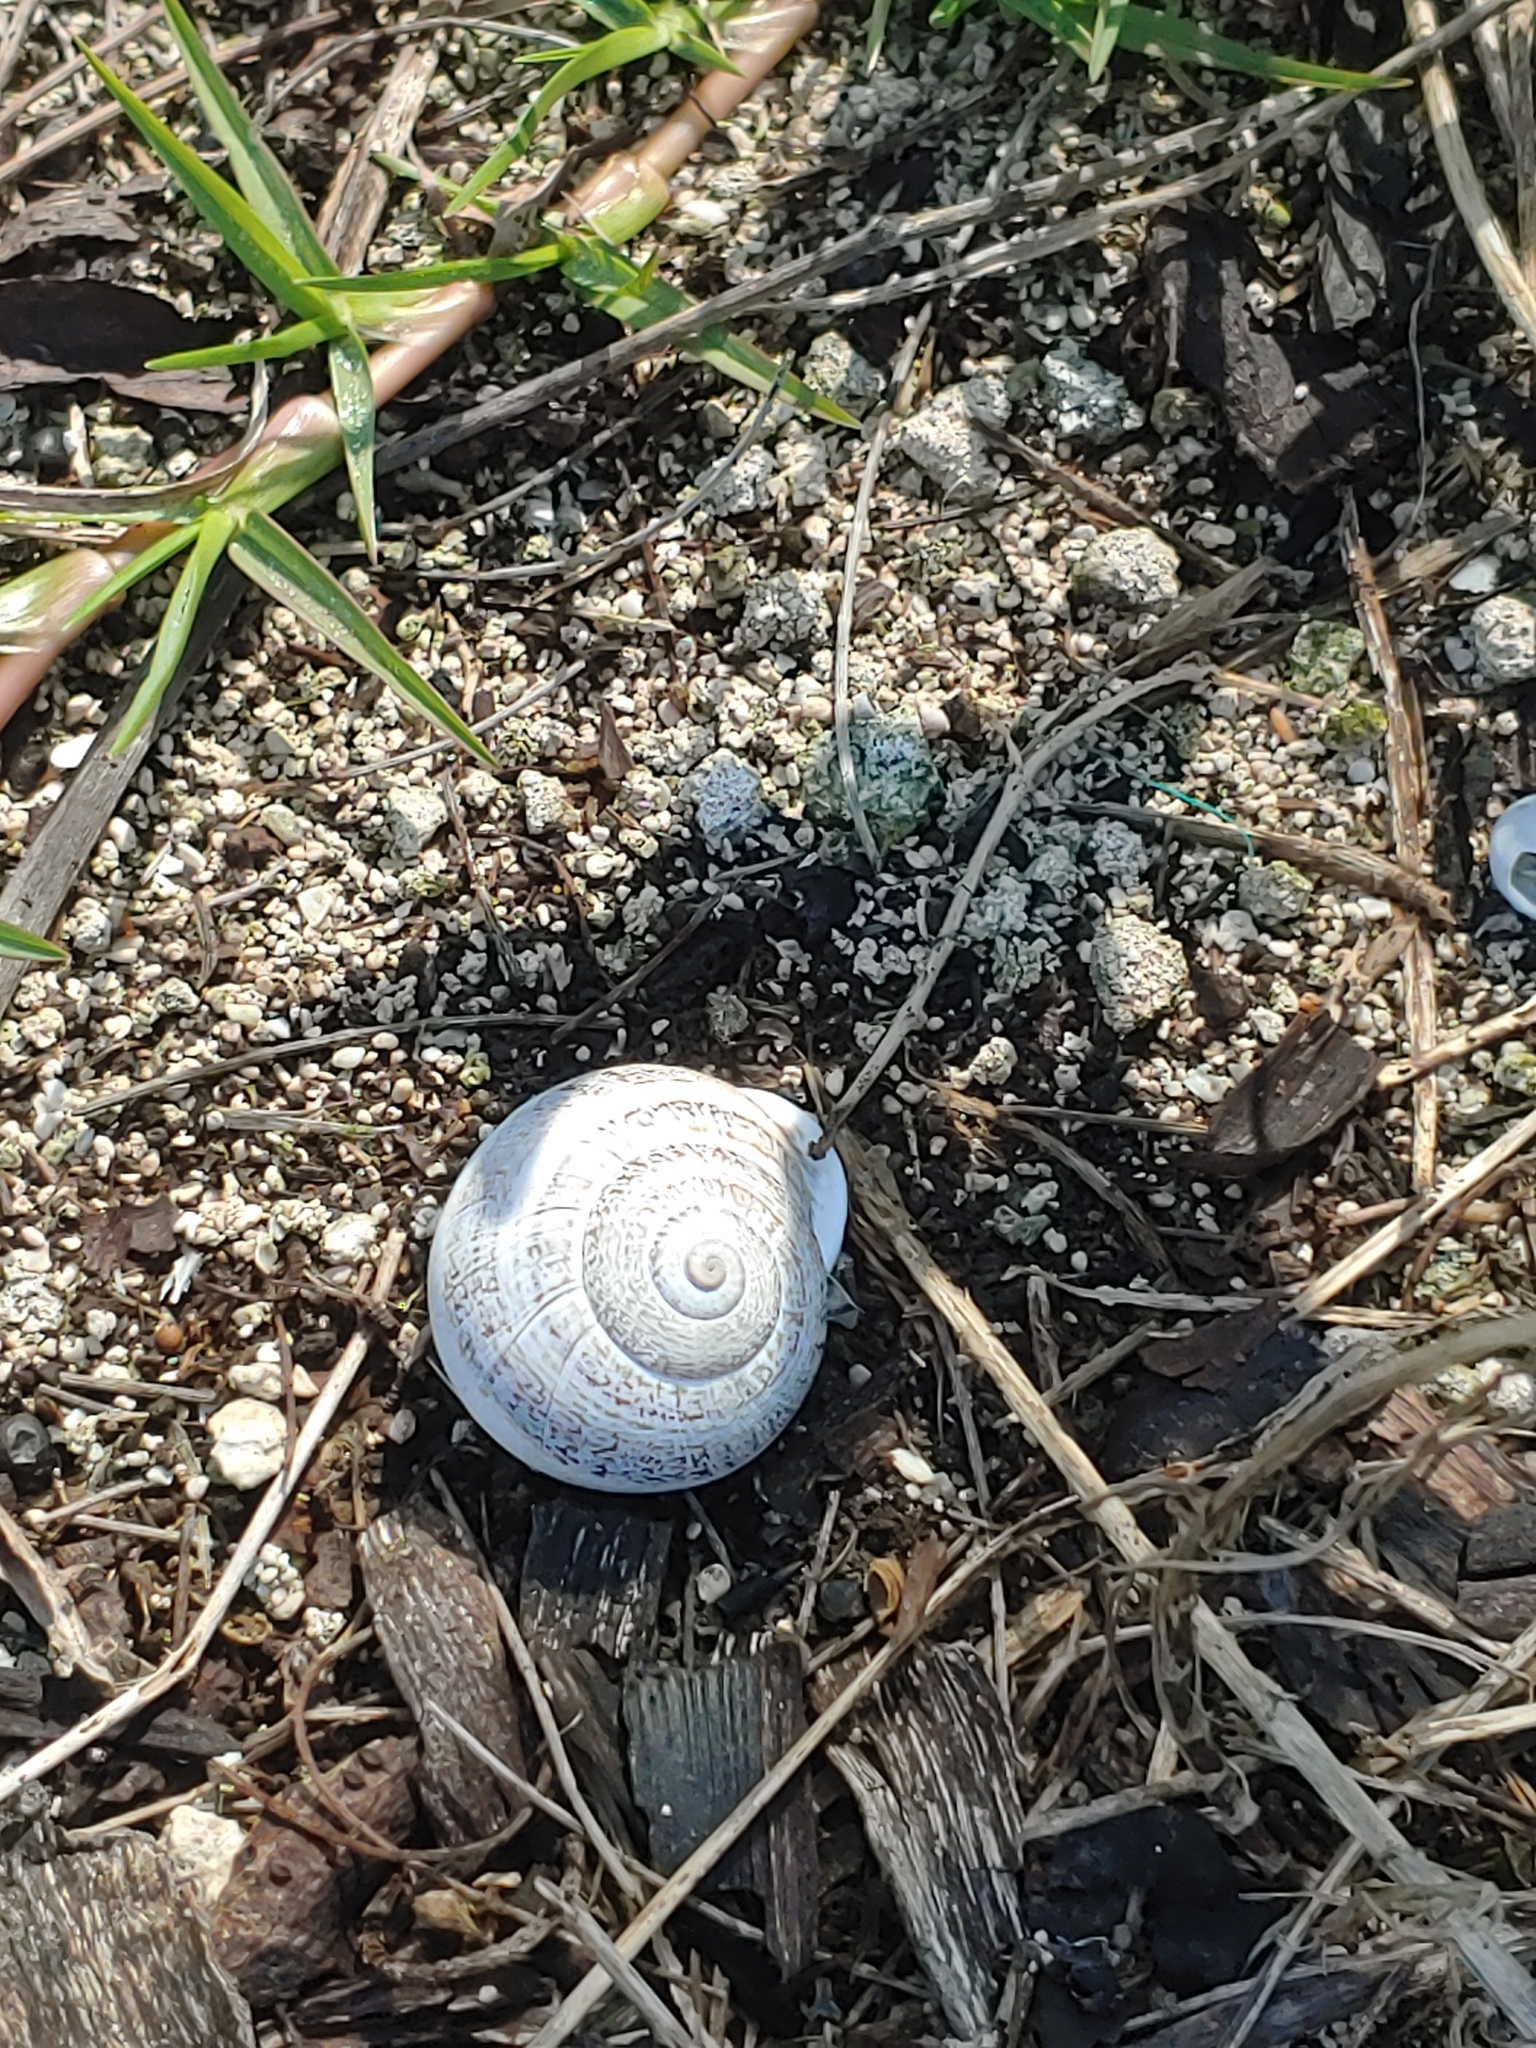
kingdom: Animalia
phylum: Mollusca
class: Gastropoda
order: Stylommatophora
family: Helicidae
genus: Otala
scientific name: Otala lactea
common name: Milk snail
